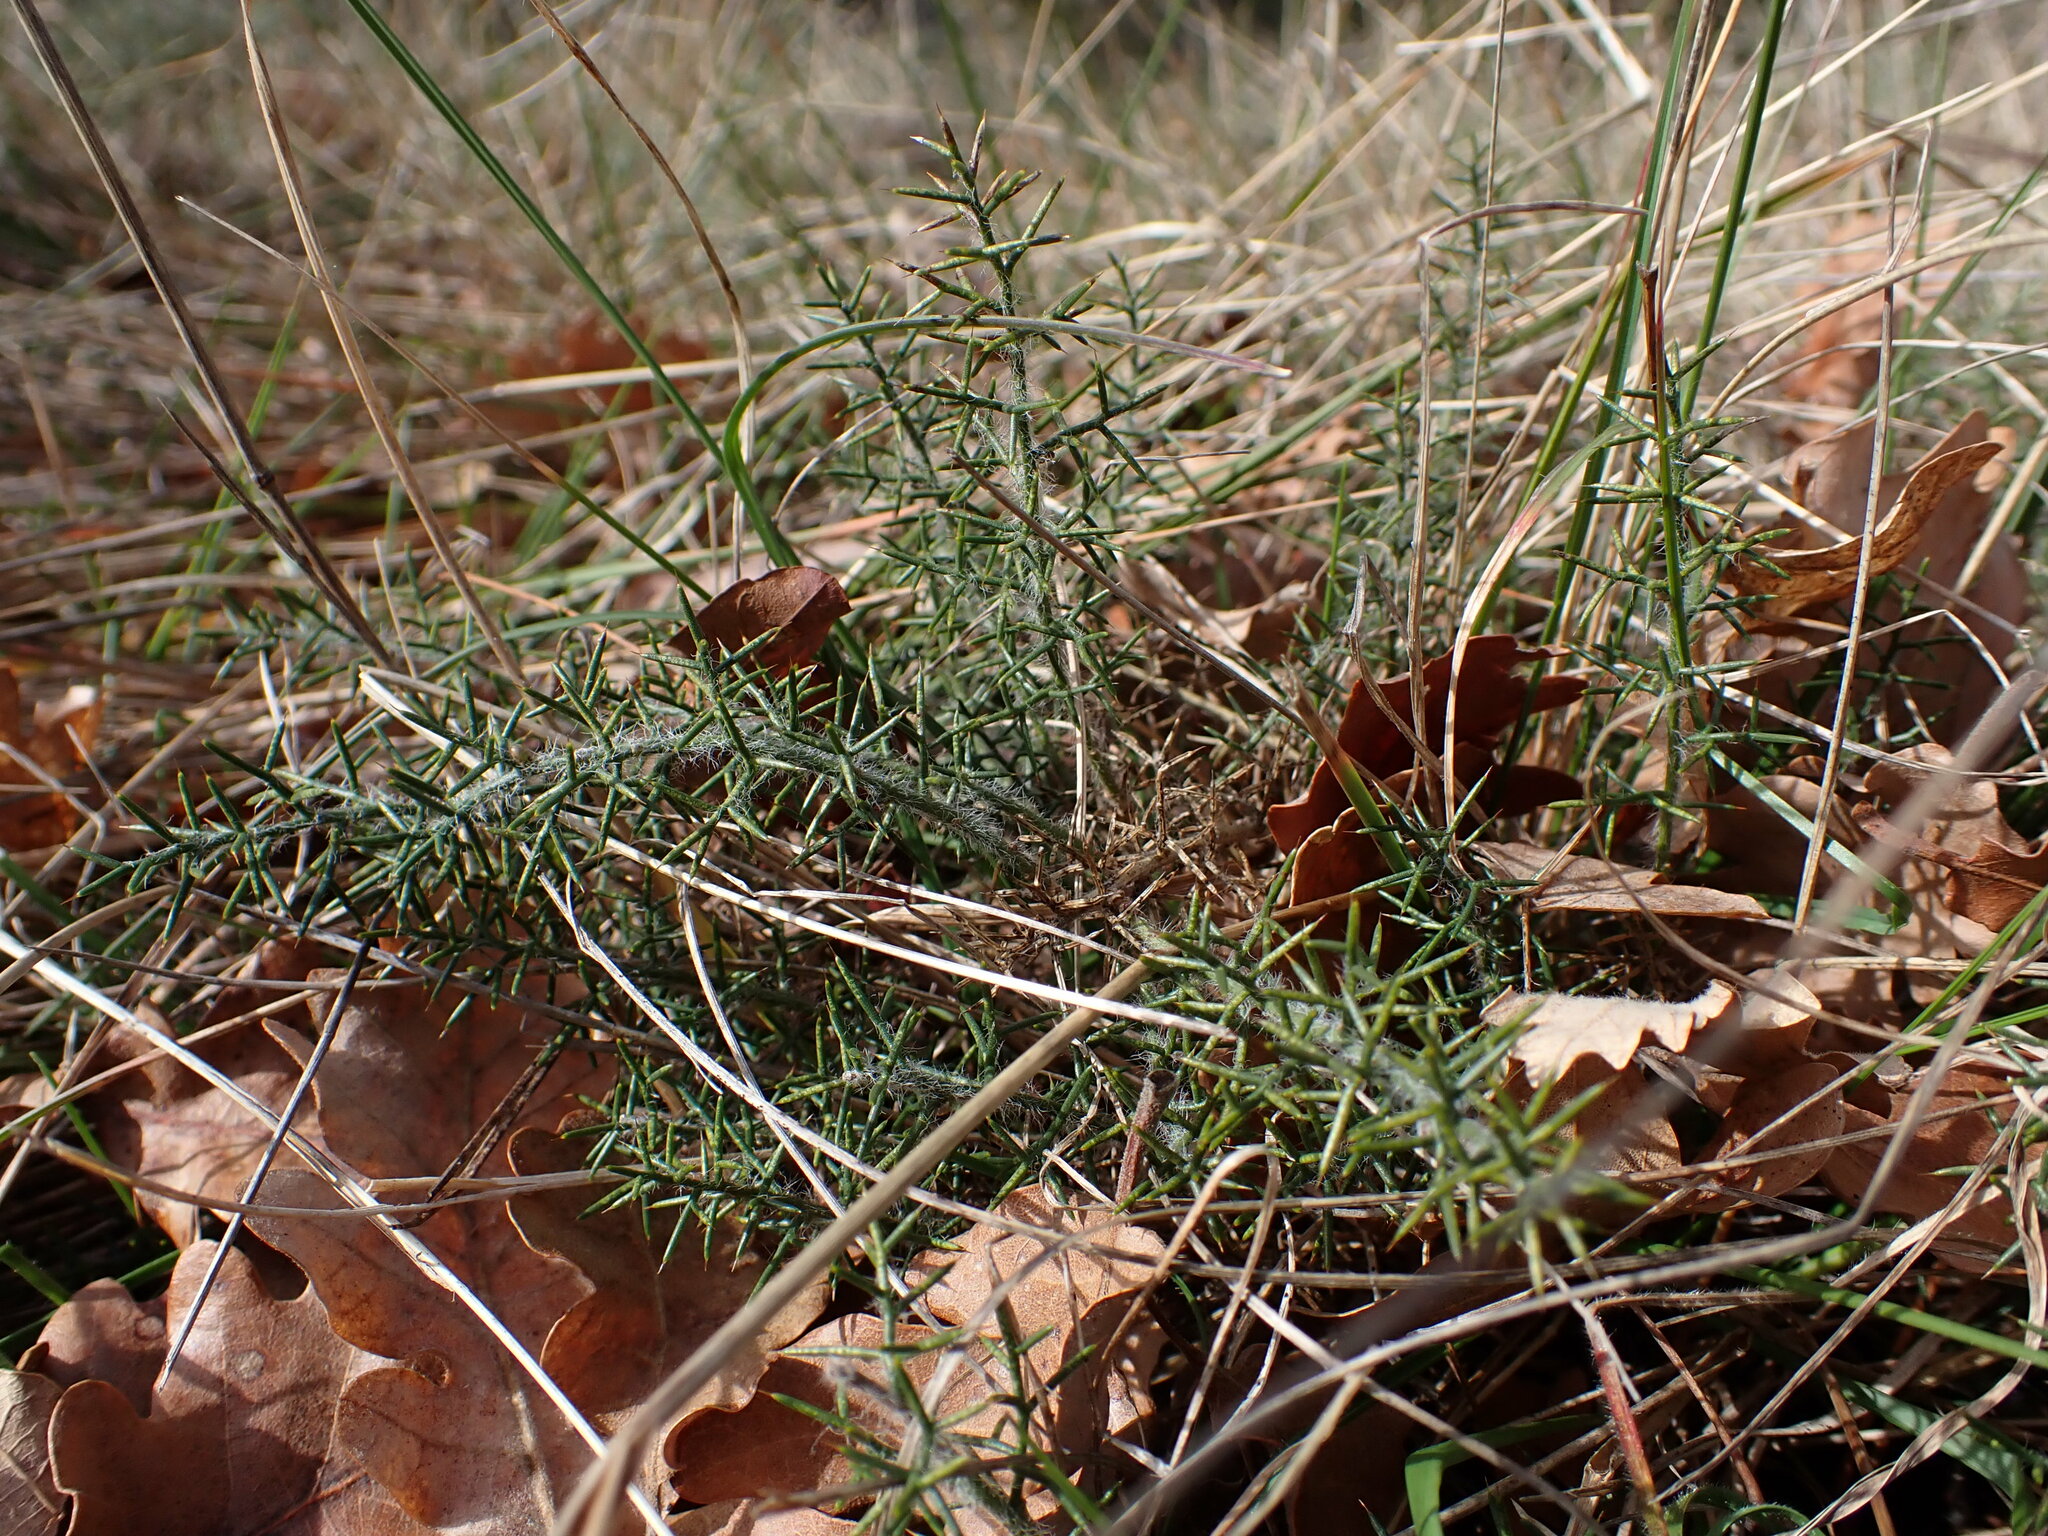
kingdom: Plantae
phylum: Tracheophyta
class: Magnoliopsida
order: Fabales
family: Fabaceae
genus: Genista
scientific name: Genista hispanica
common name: Spanish gorse
